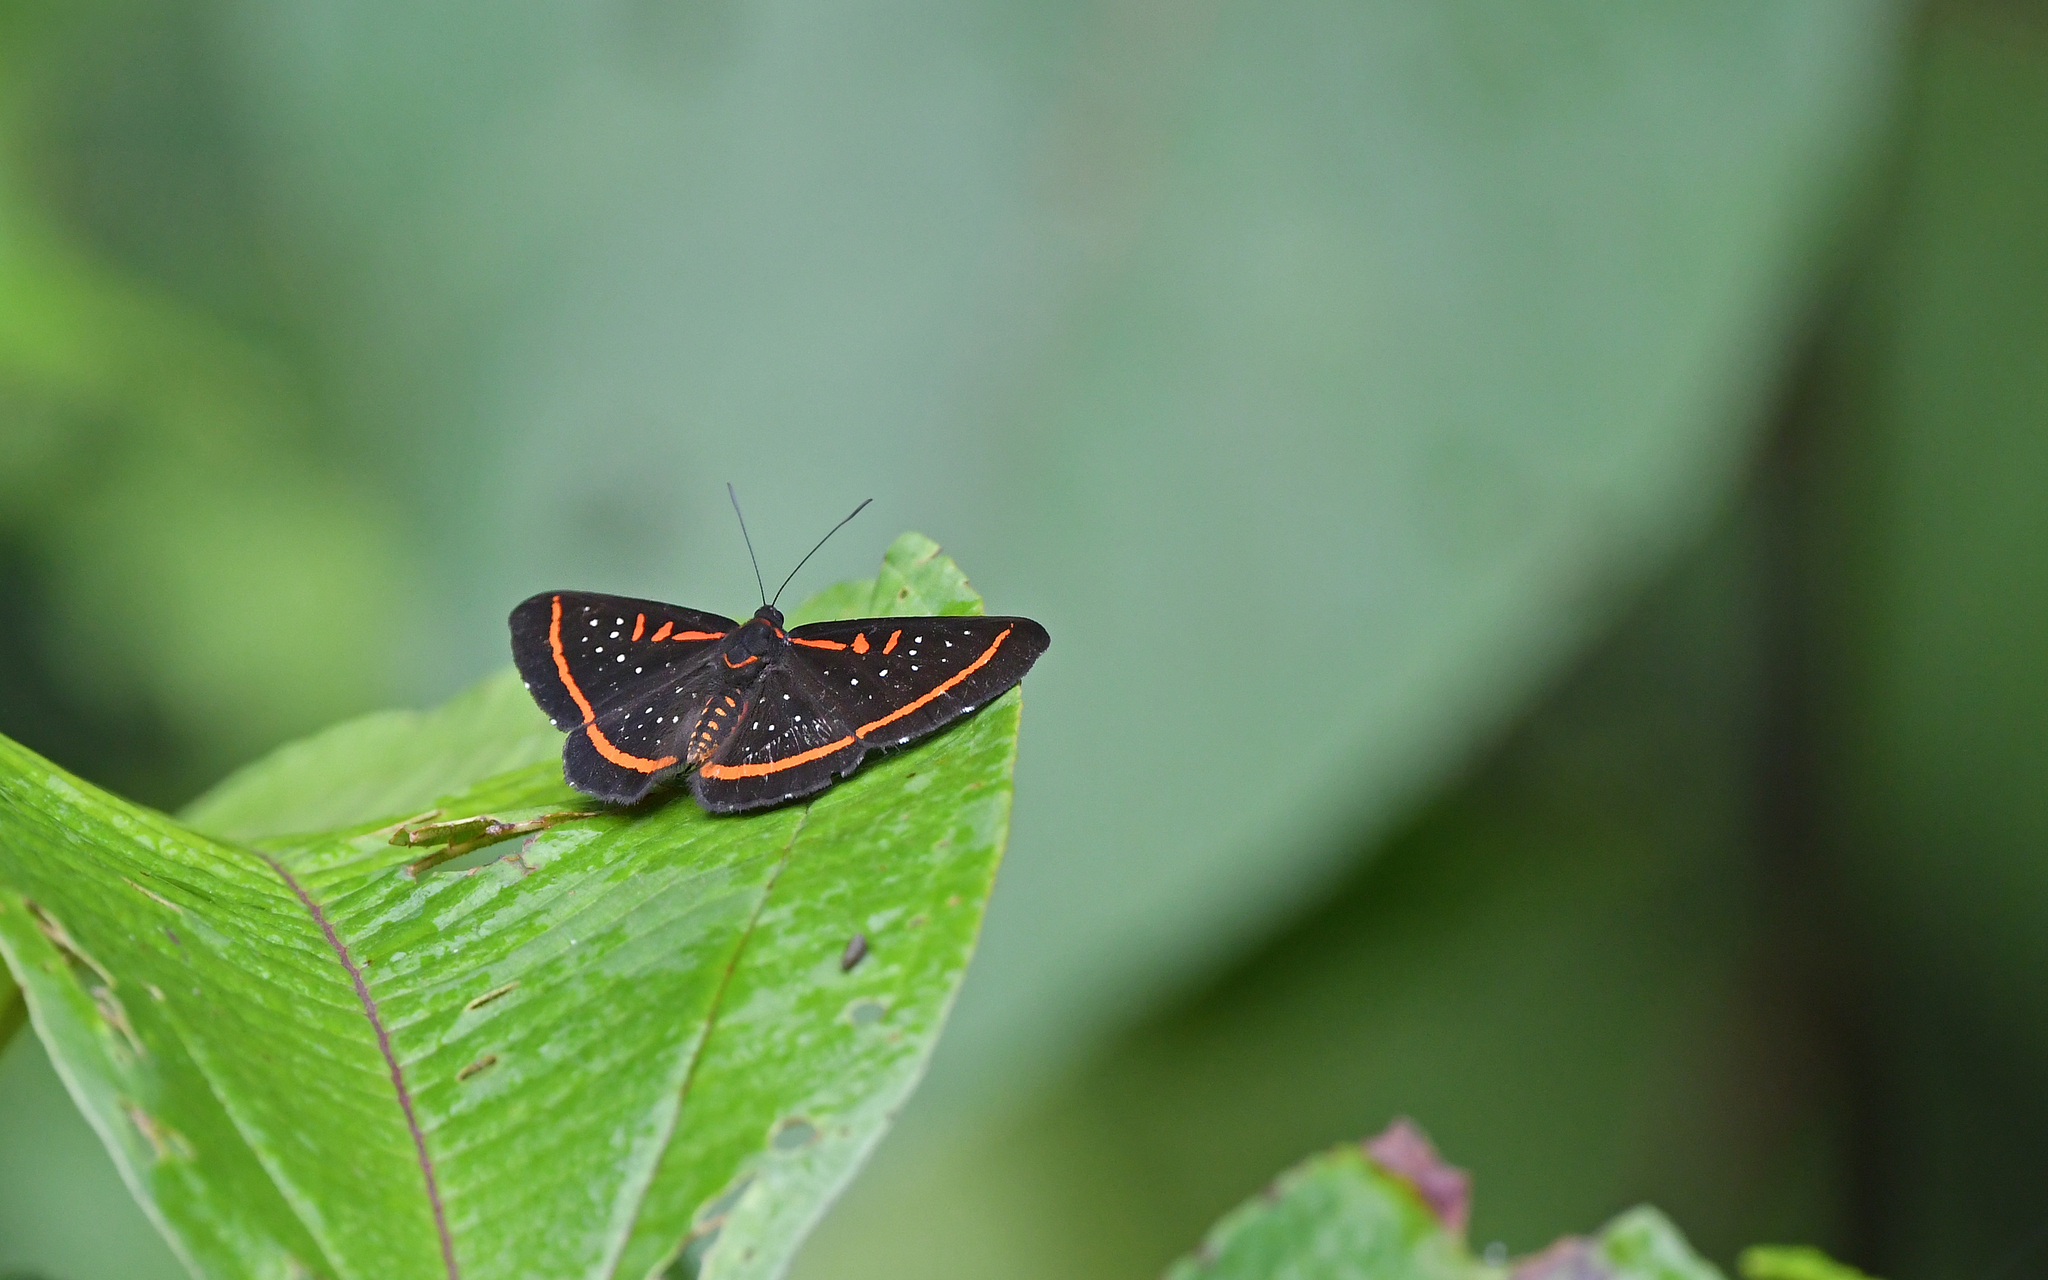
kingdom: Animalia
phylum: Arthropoda
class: Insecta
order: Lepidoptera
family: Riodinidae
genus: Amarynthis
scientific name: Amarynthis meneria
